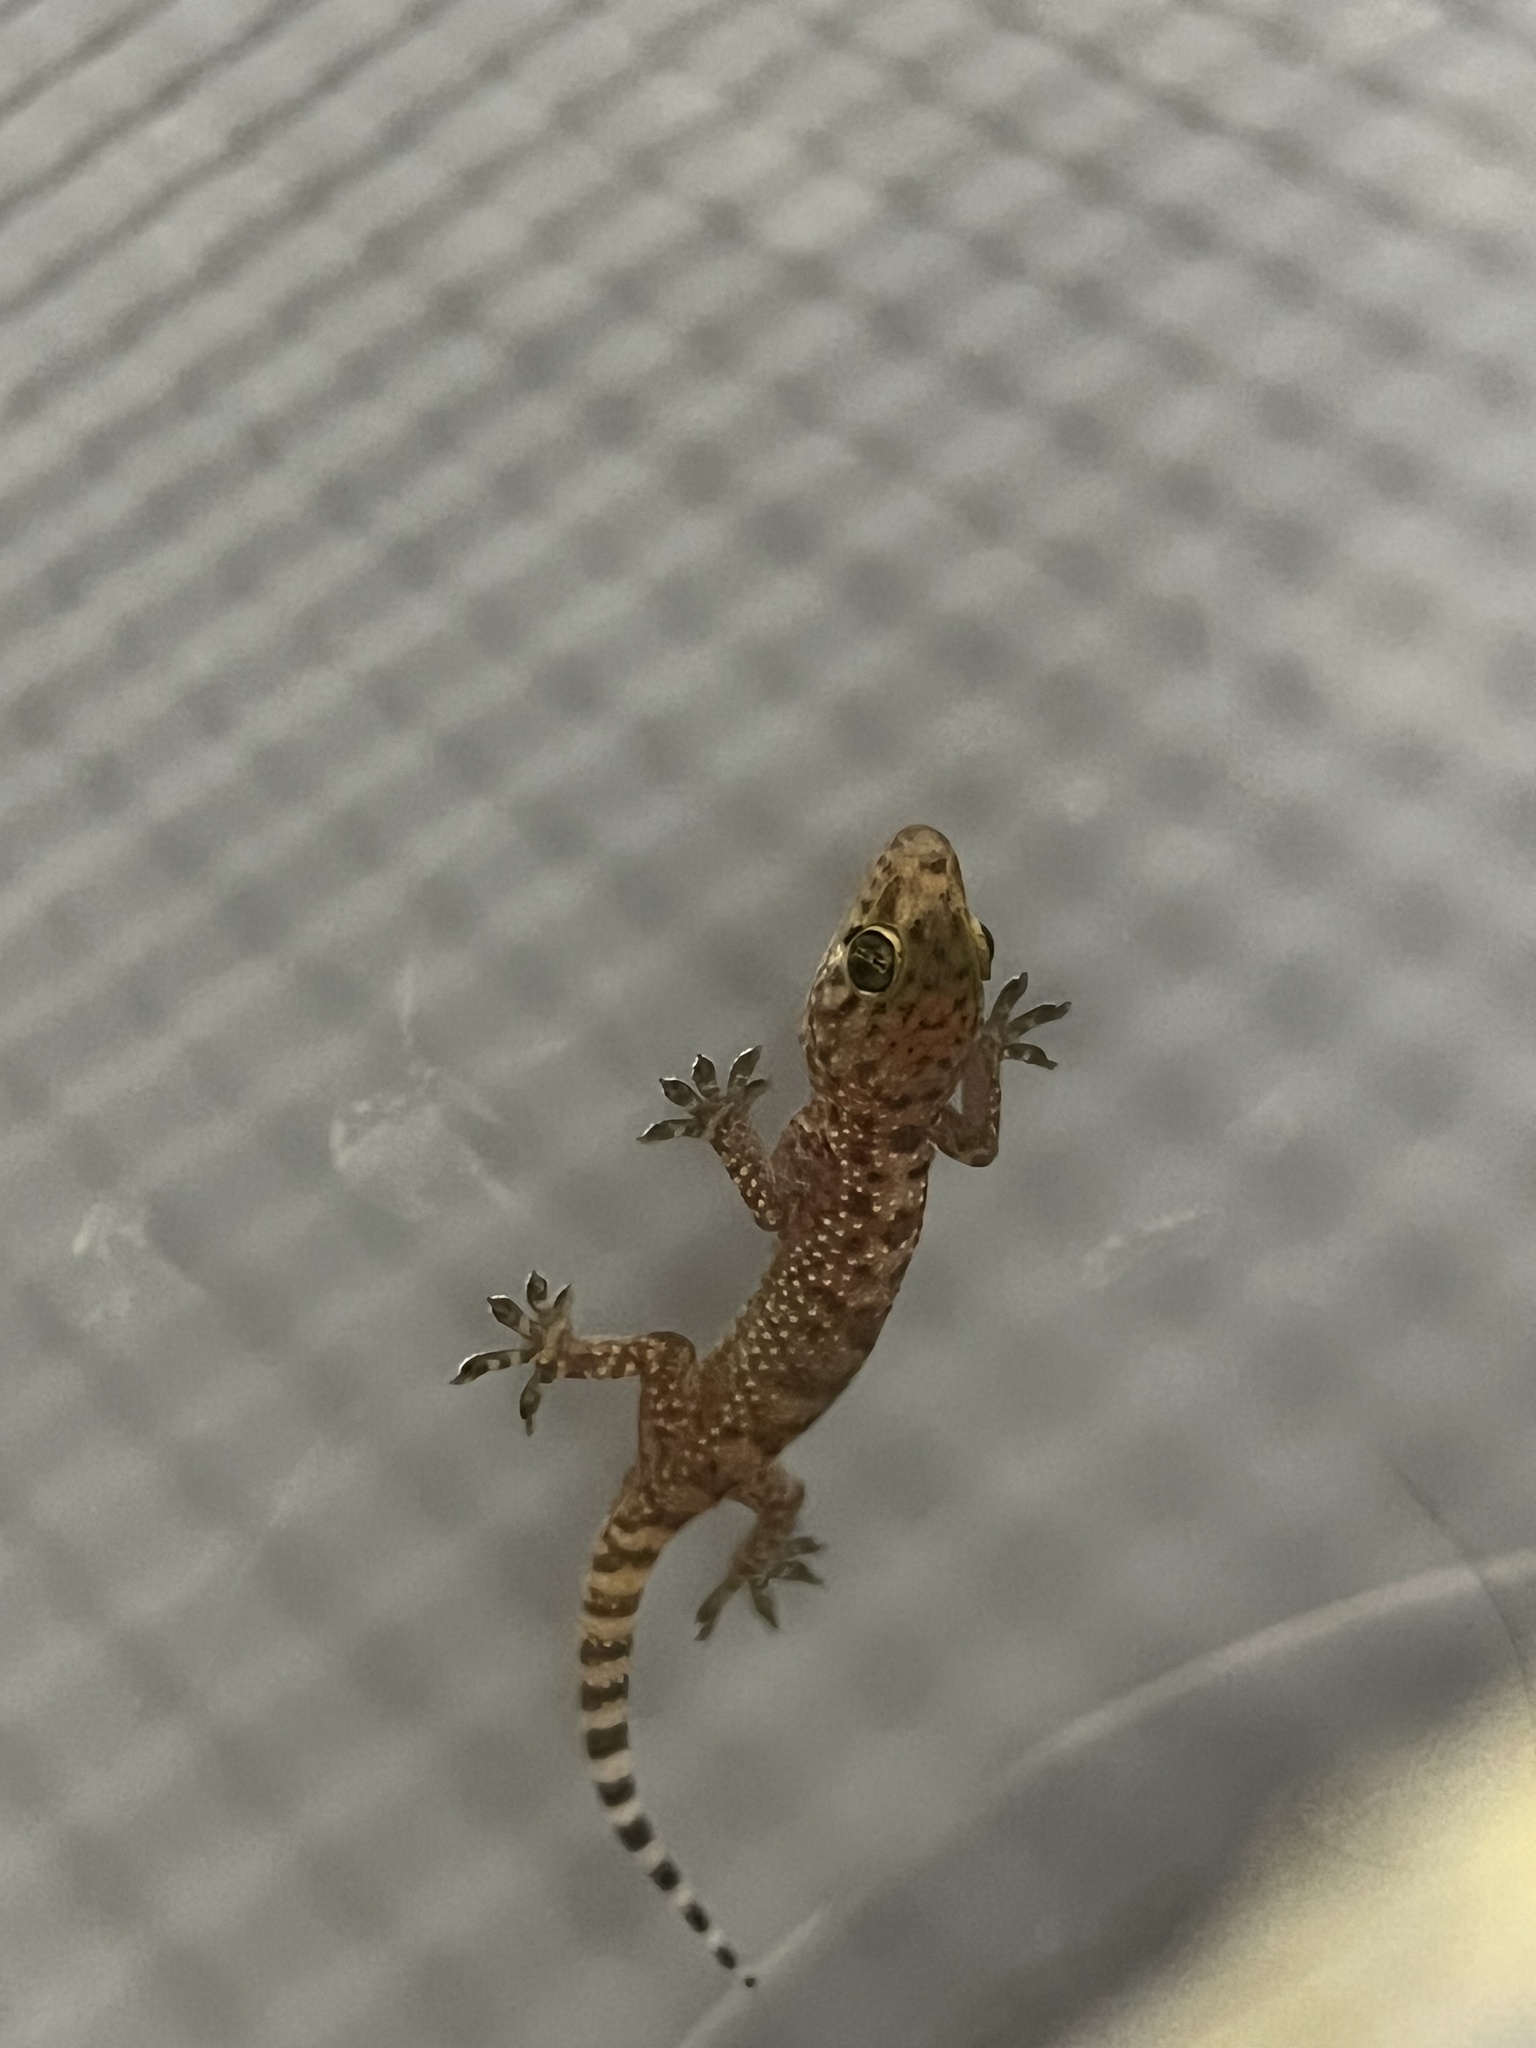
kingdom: Animalia
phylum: Chordata
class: Squamata
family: Gekkonidae
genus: Hemidactylus
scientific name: Hemidactylus turcicus
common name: Turkish gecko
